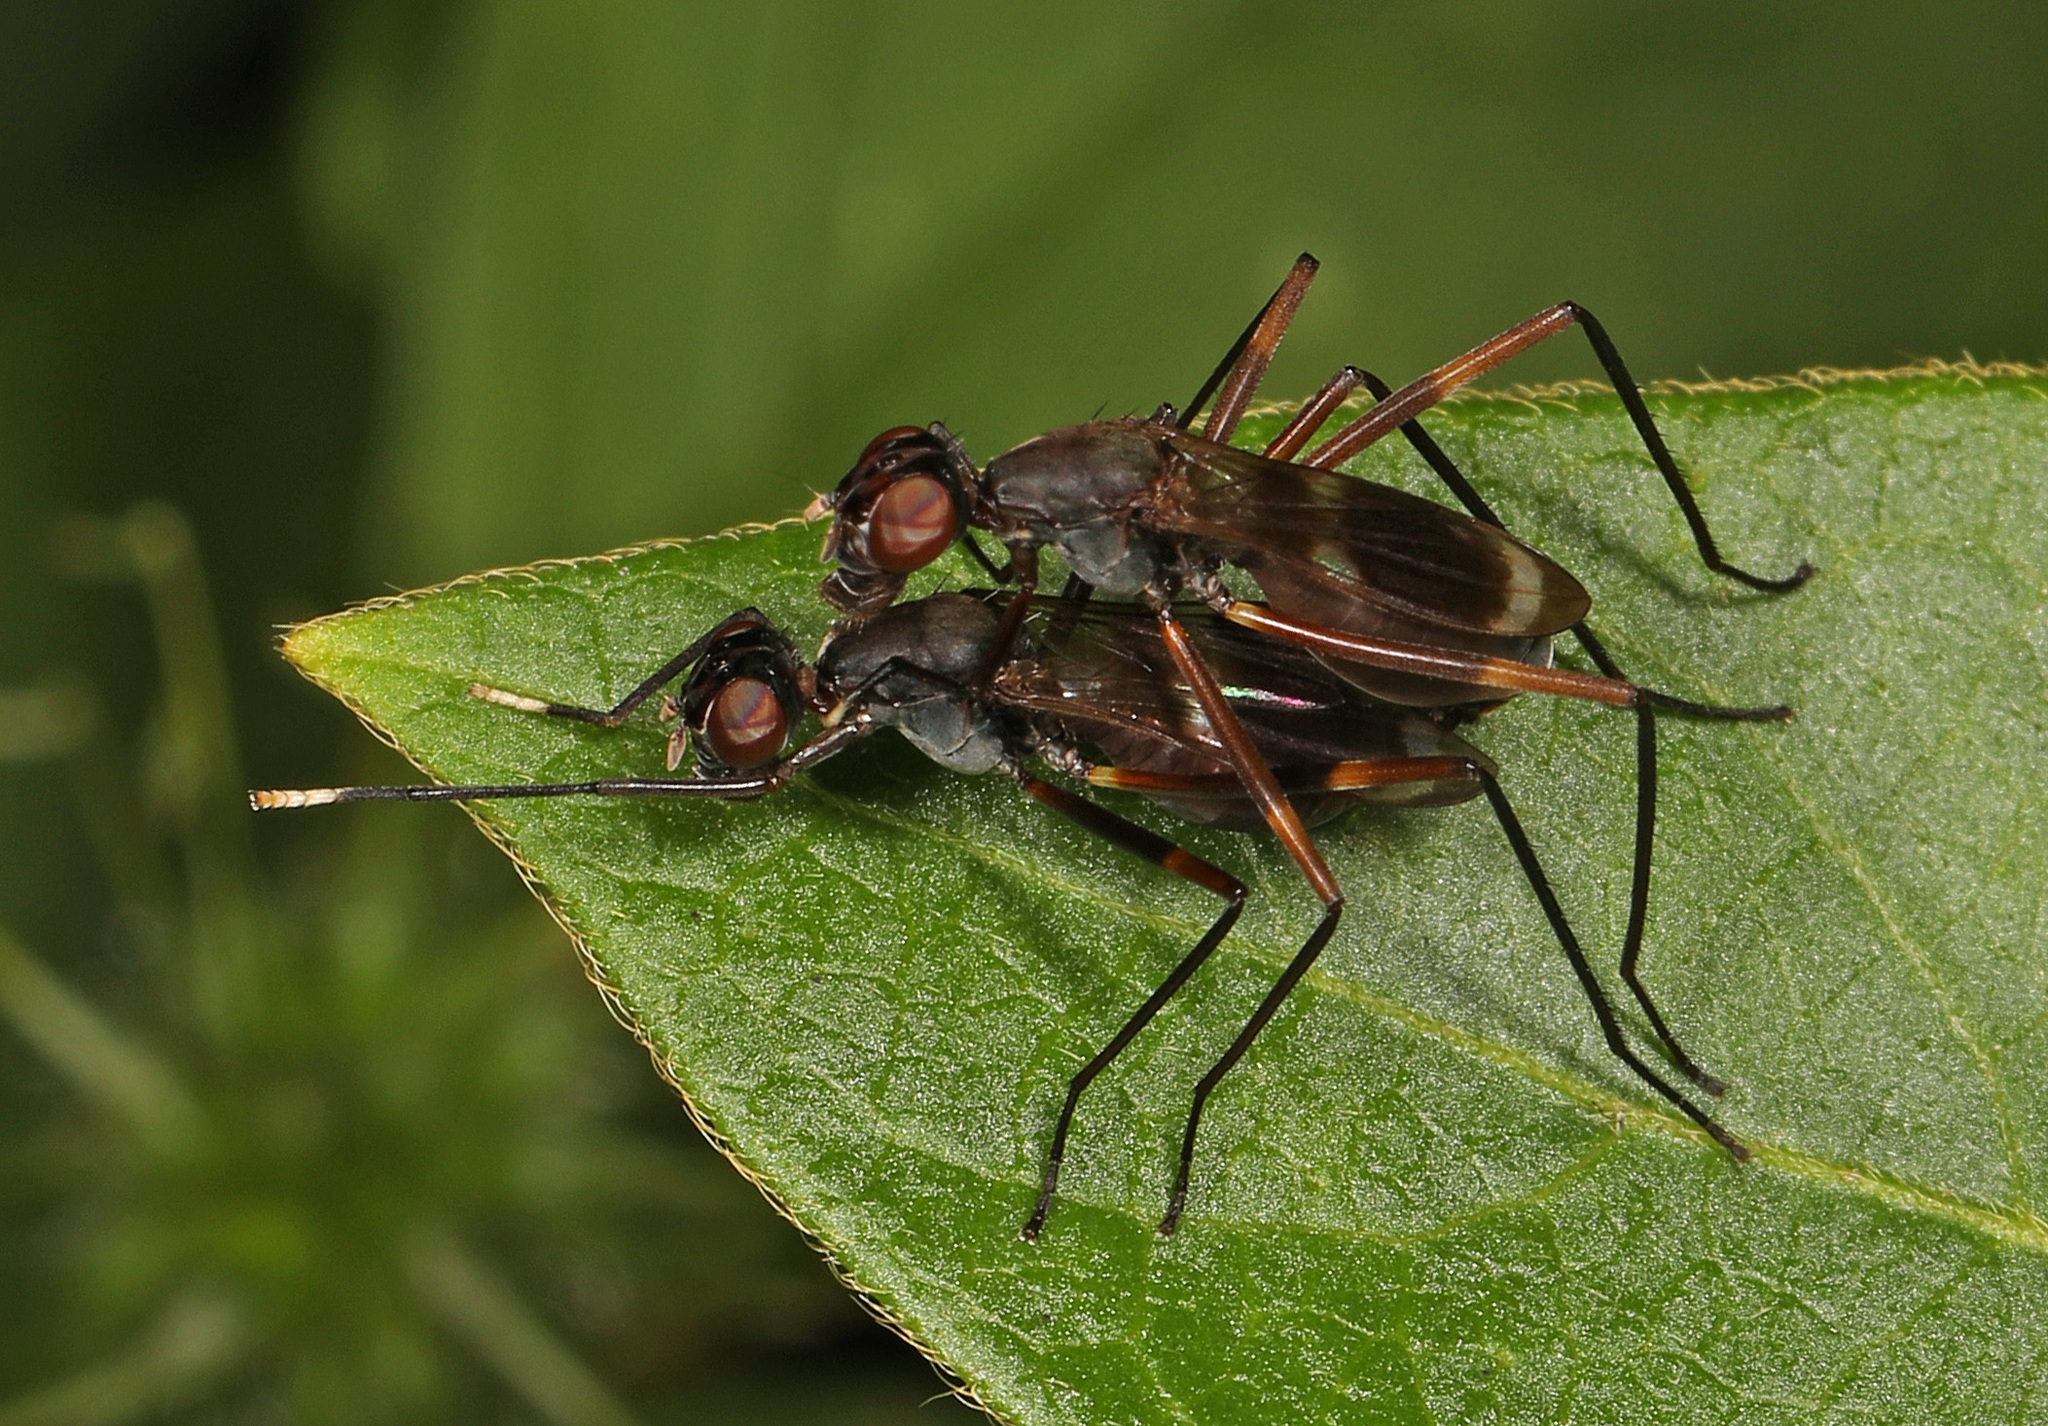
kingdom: Animalia
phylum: Arthropoda
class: Insecta
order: Diptera
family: Micropezidae
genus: Taeniaptera
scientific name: Taeniaptera trivittata
